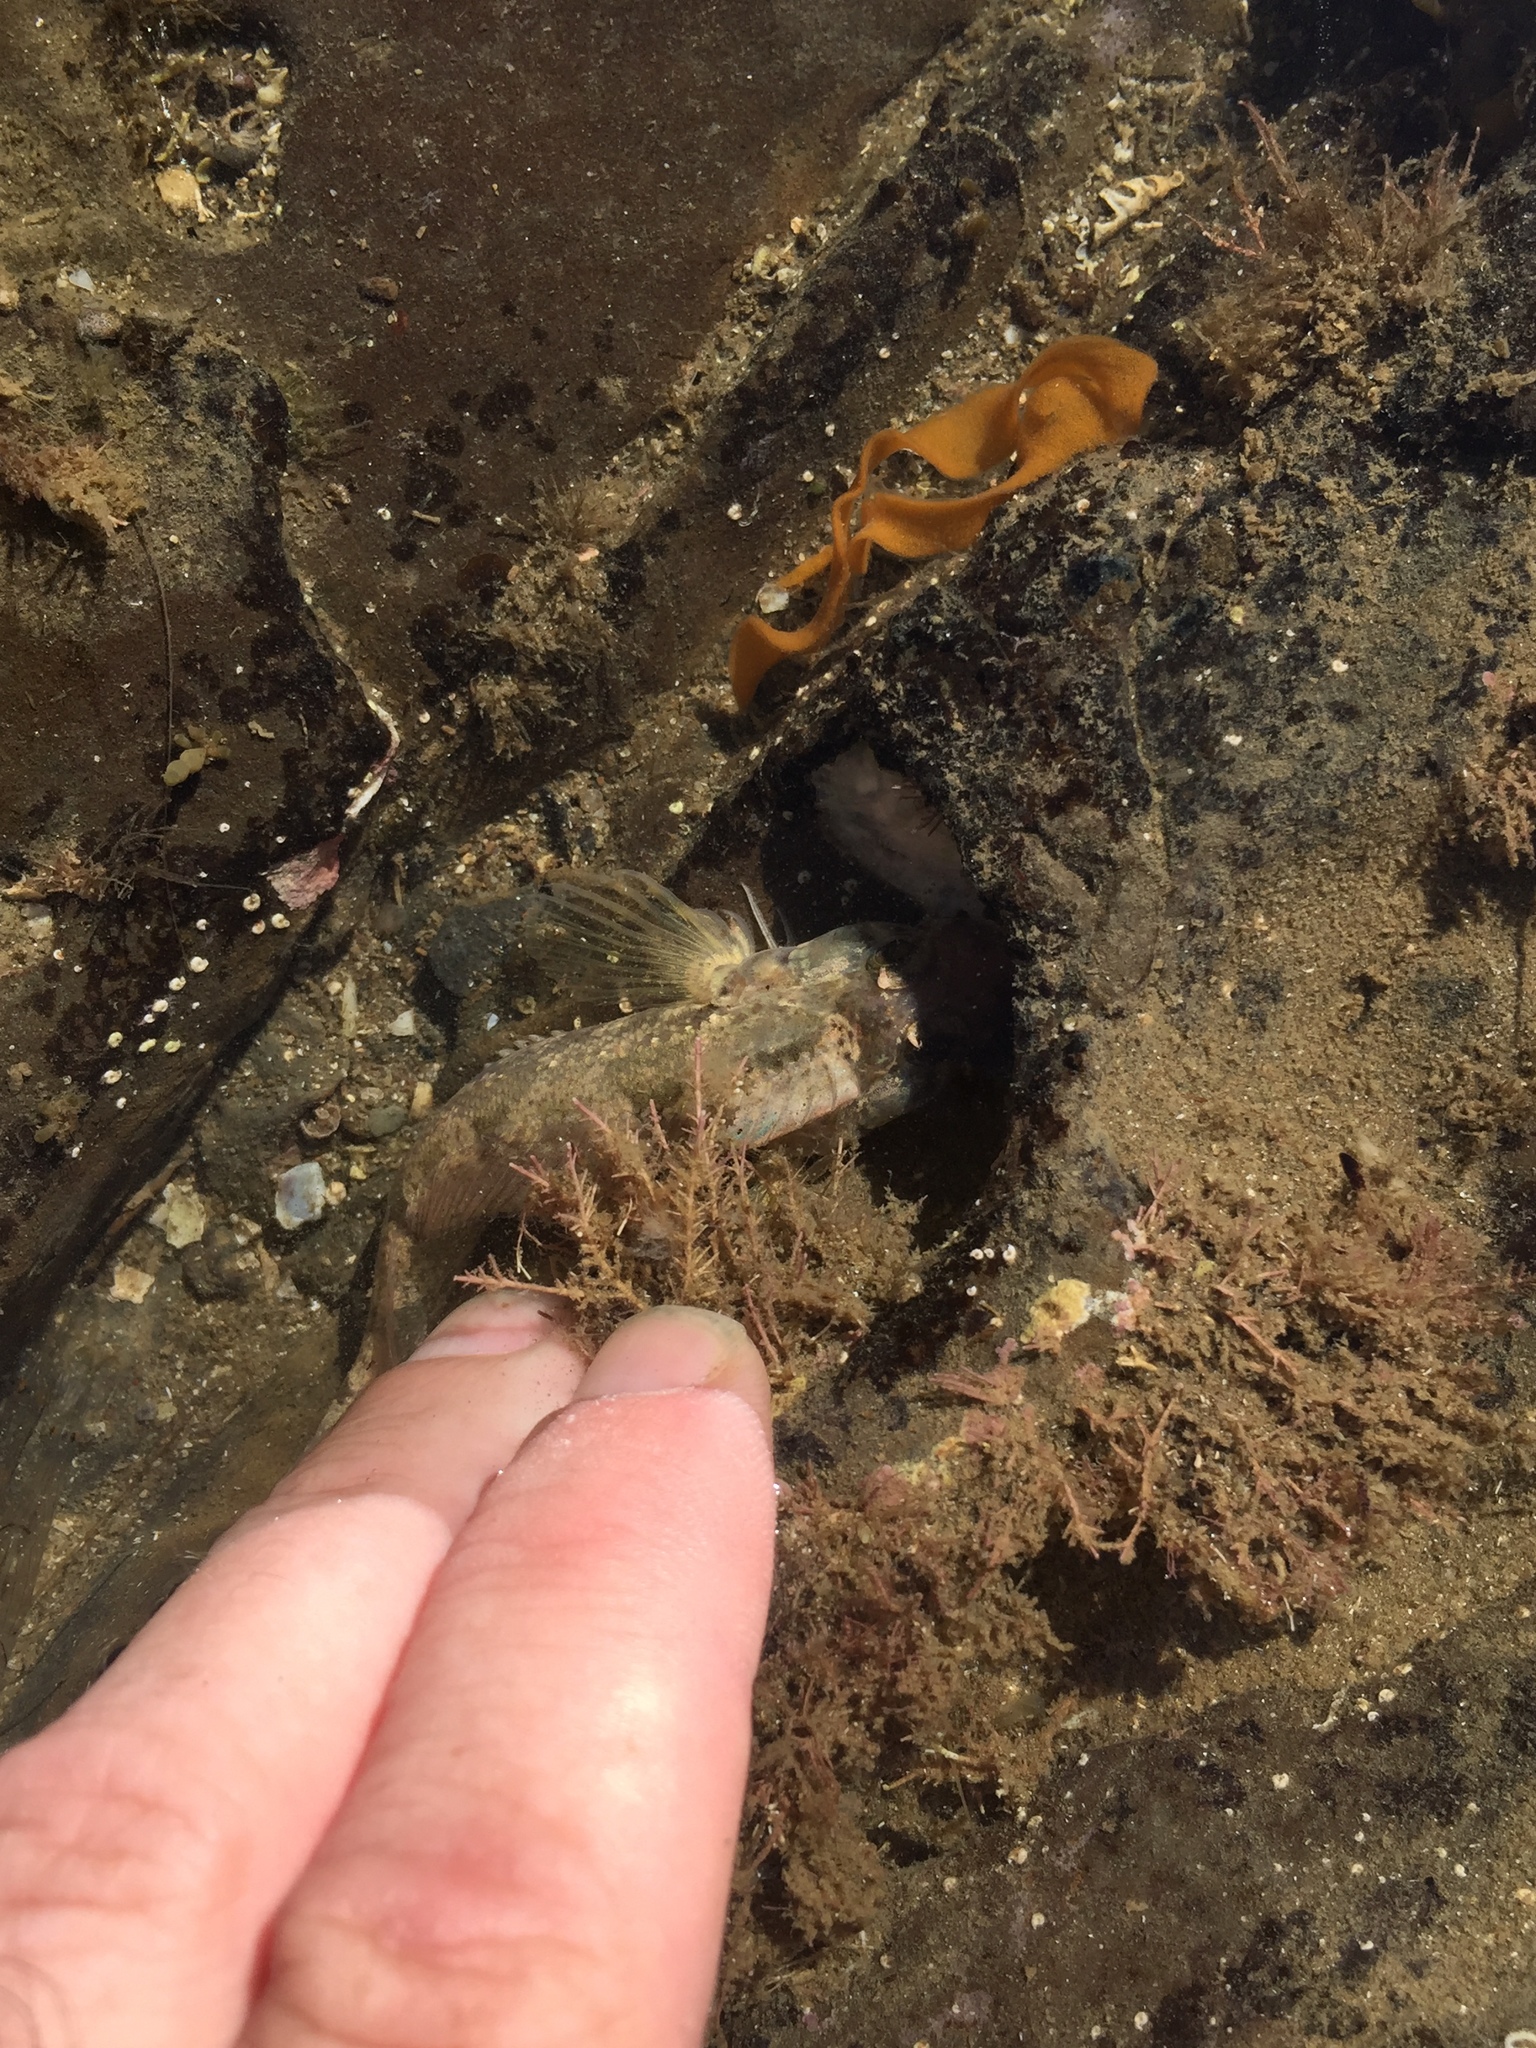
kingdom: Animalia
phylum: Chordata
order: Perciformes
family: Tripterygiidae
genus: Forsterygion
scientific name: Forsterygion capito
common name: Spotted robust triplefin
